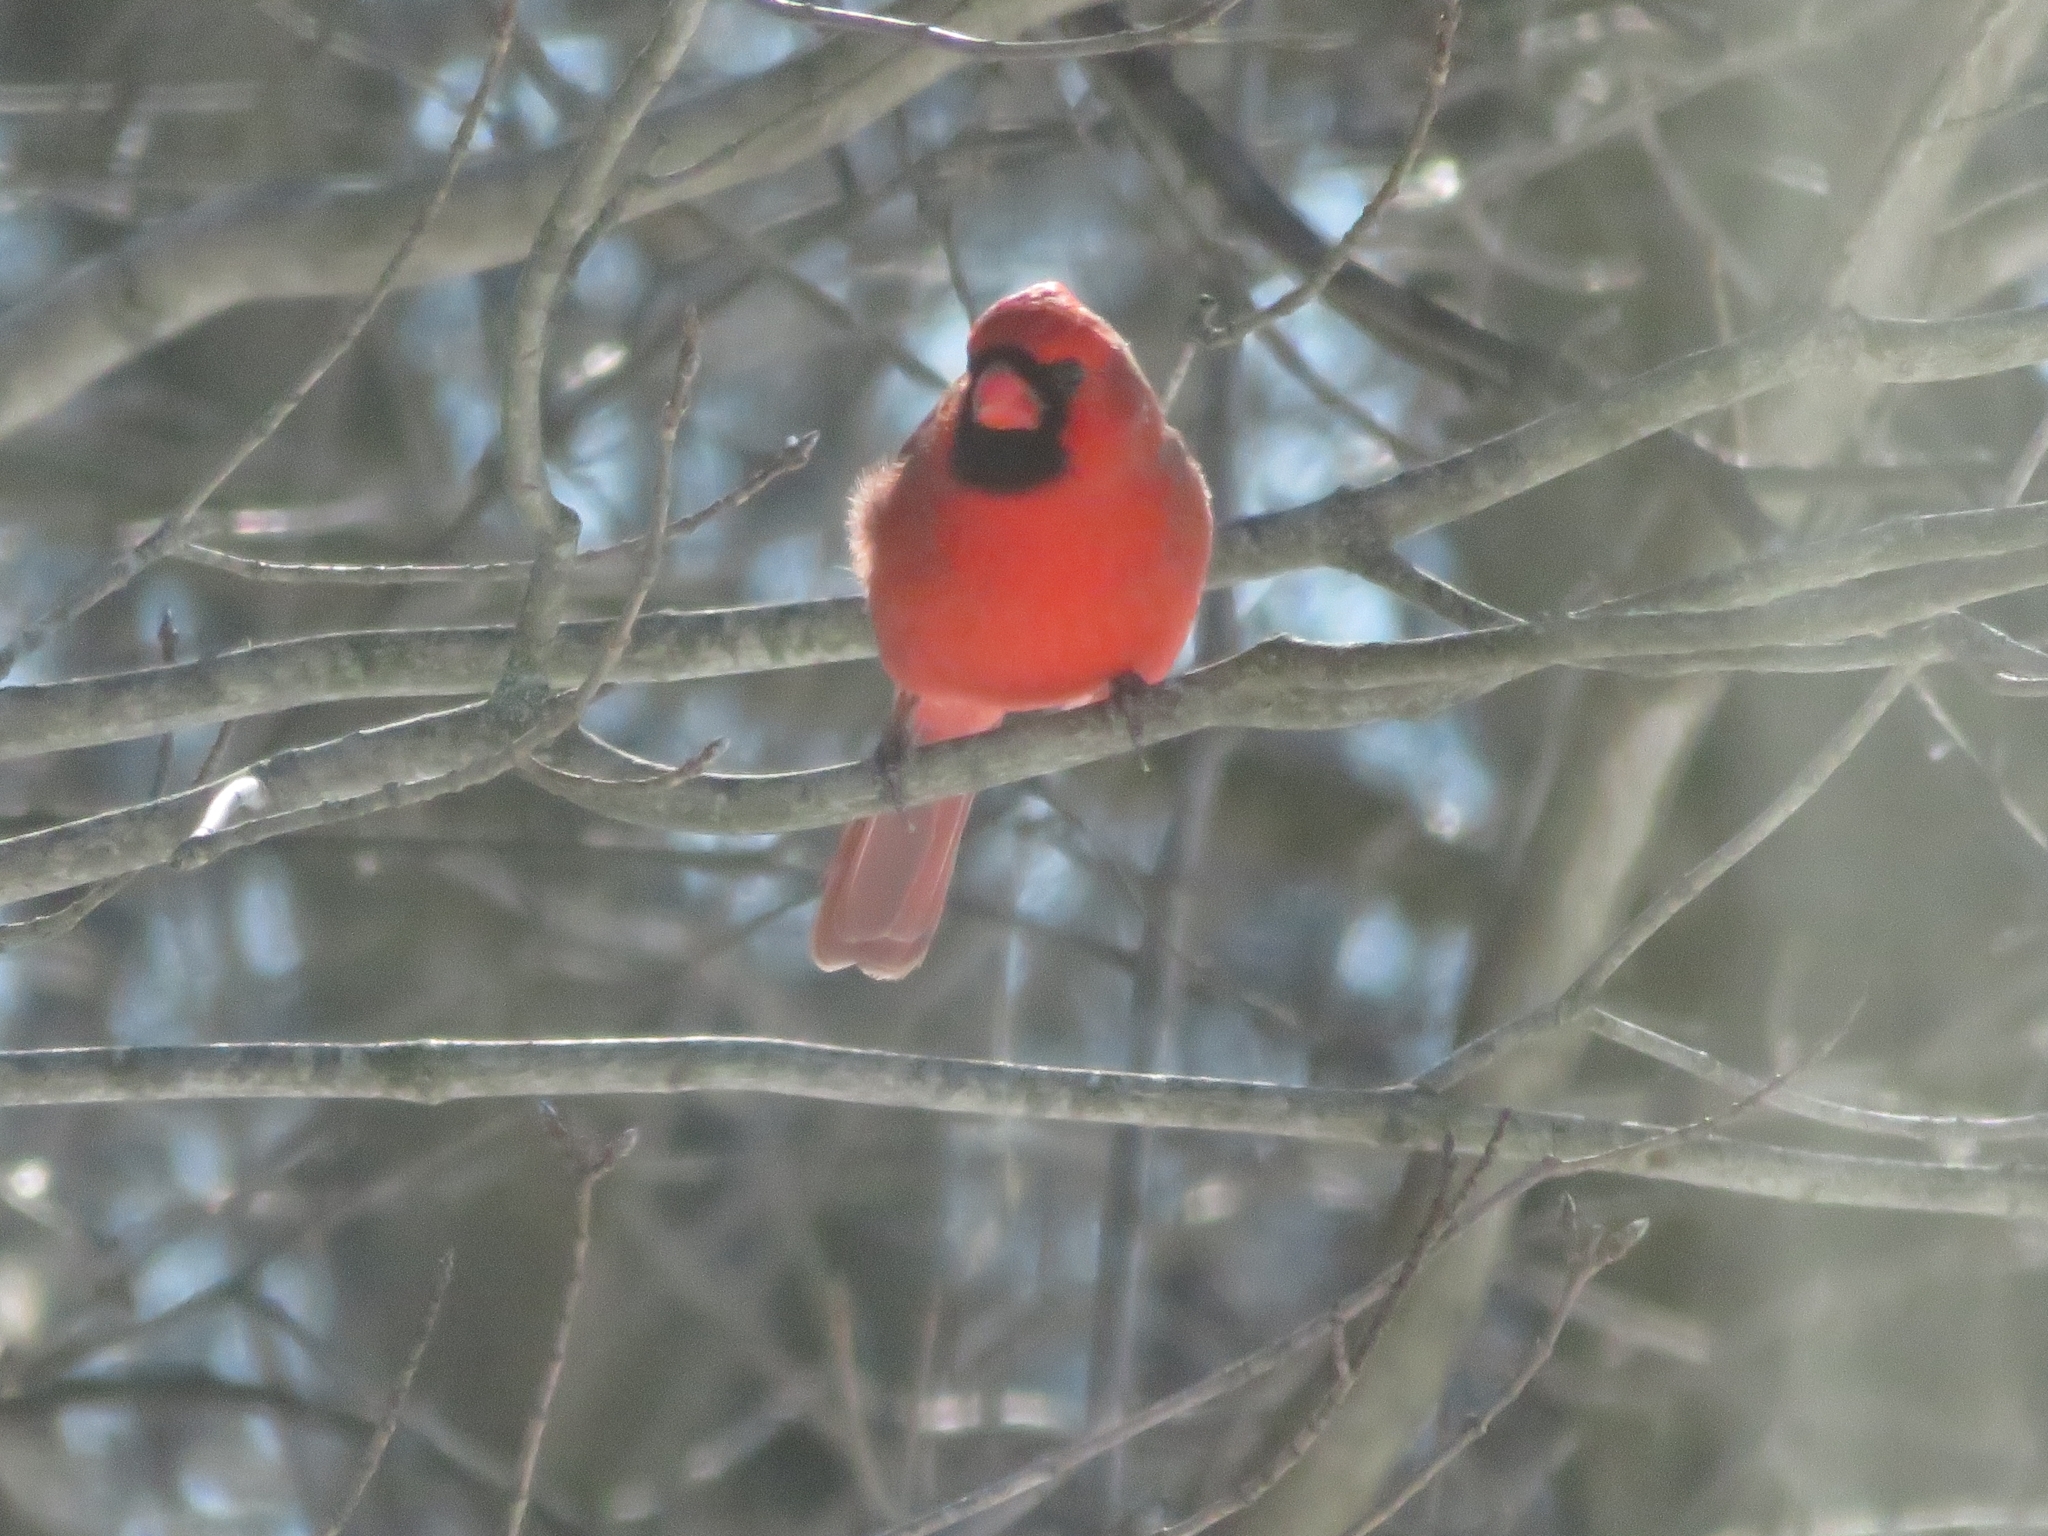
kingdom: Animalia
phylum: Chordata
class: Aves
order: Passeriformes
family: Cardinalidae
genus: Cardinalis
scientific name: Cardinalis cardinalis
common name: Northern cardinal
